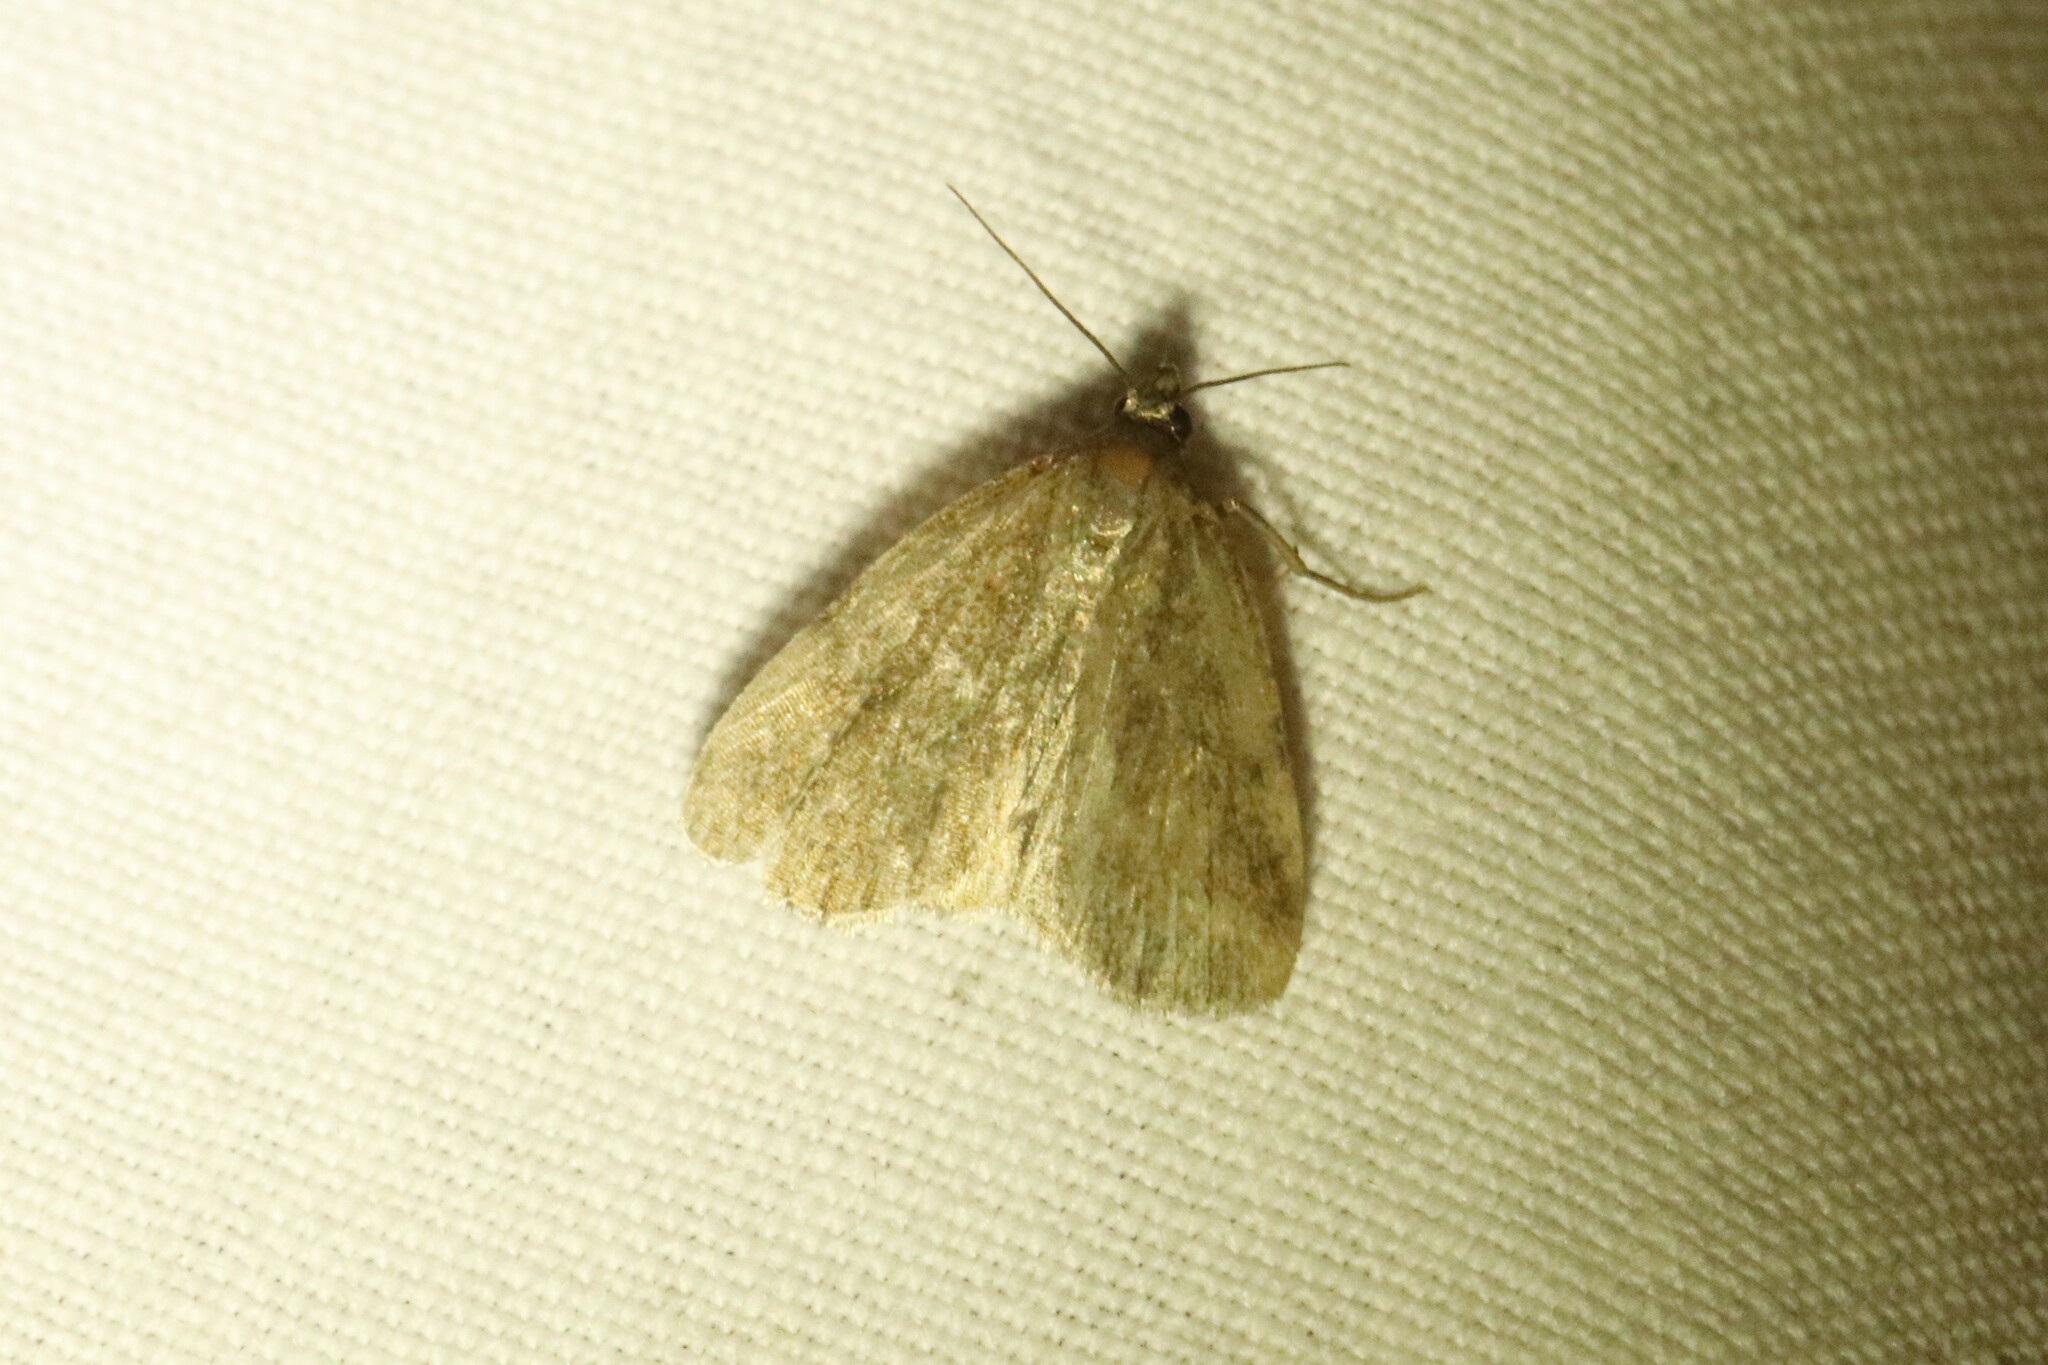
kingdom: Animalia
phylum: Arthropoda
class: Insecta
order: Lepidoptera
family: Erebidae
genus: Idia
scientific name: Idia rotundalis
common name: Rotund idia moth
